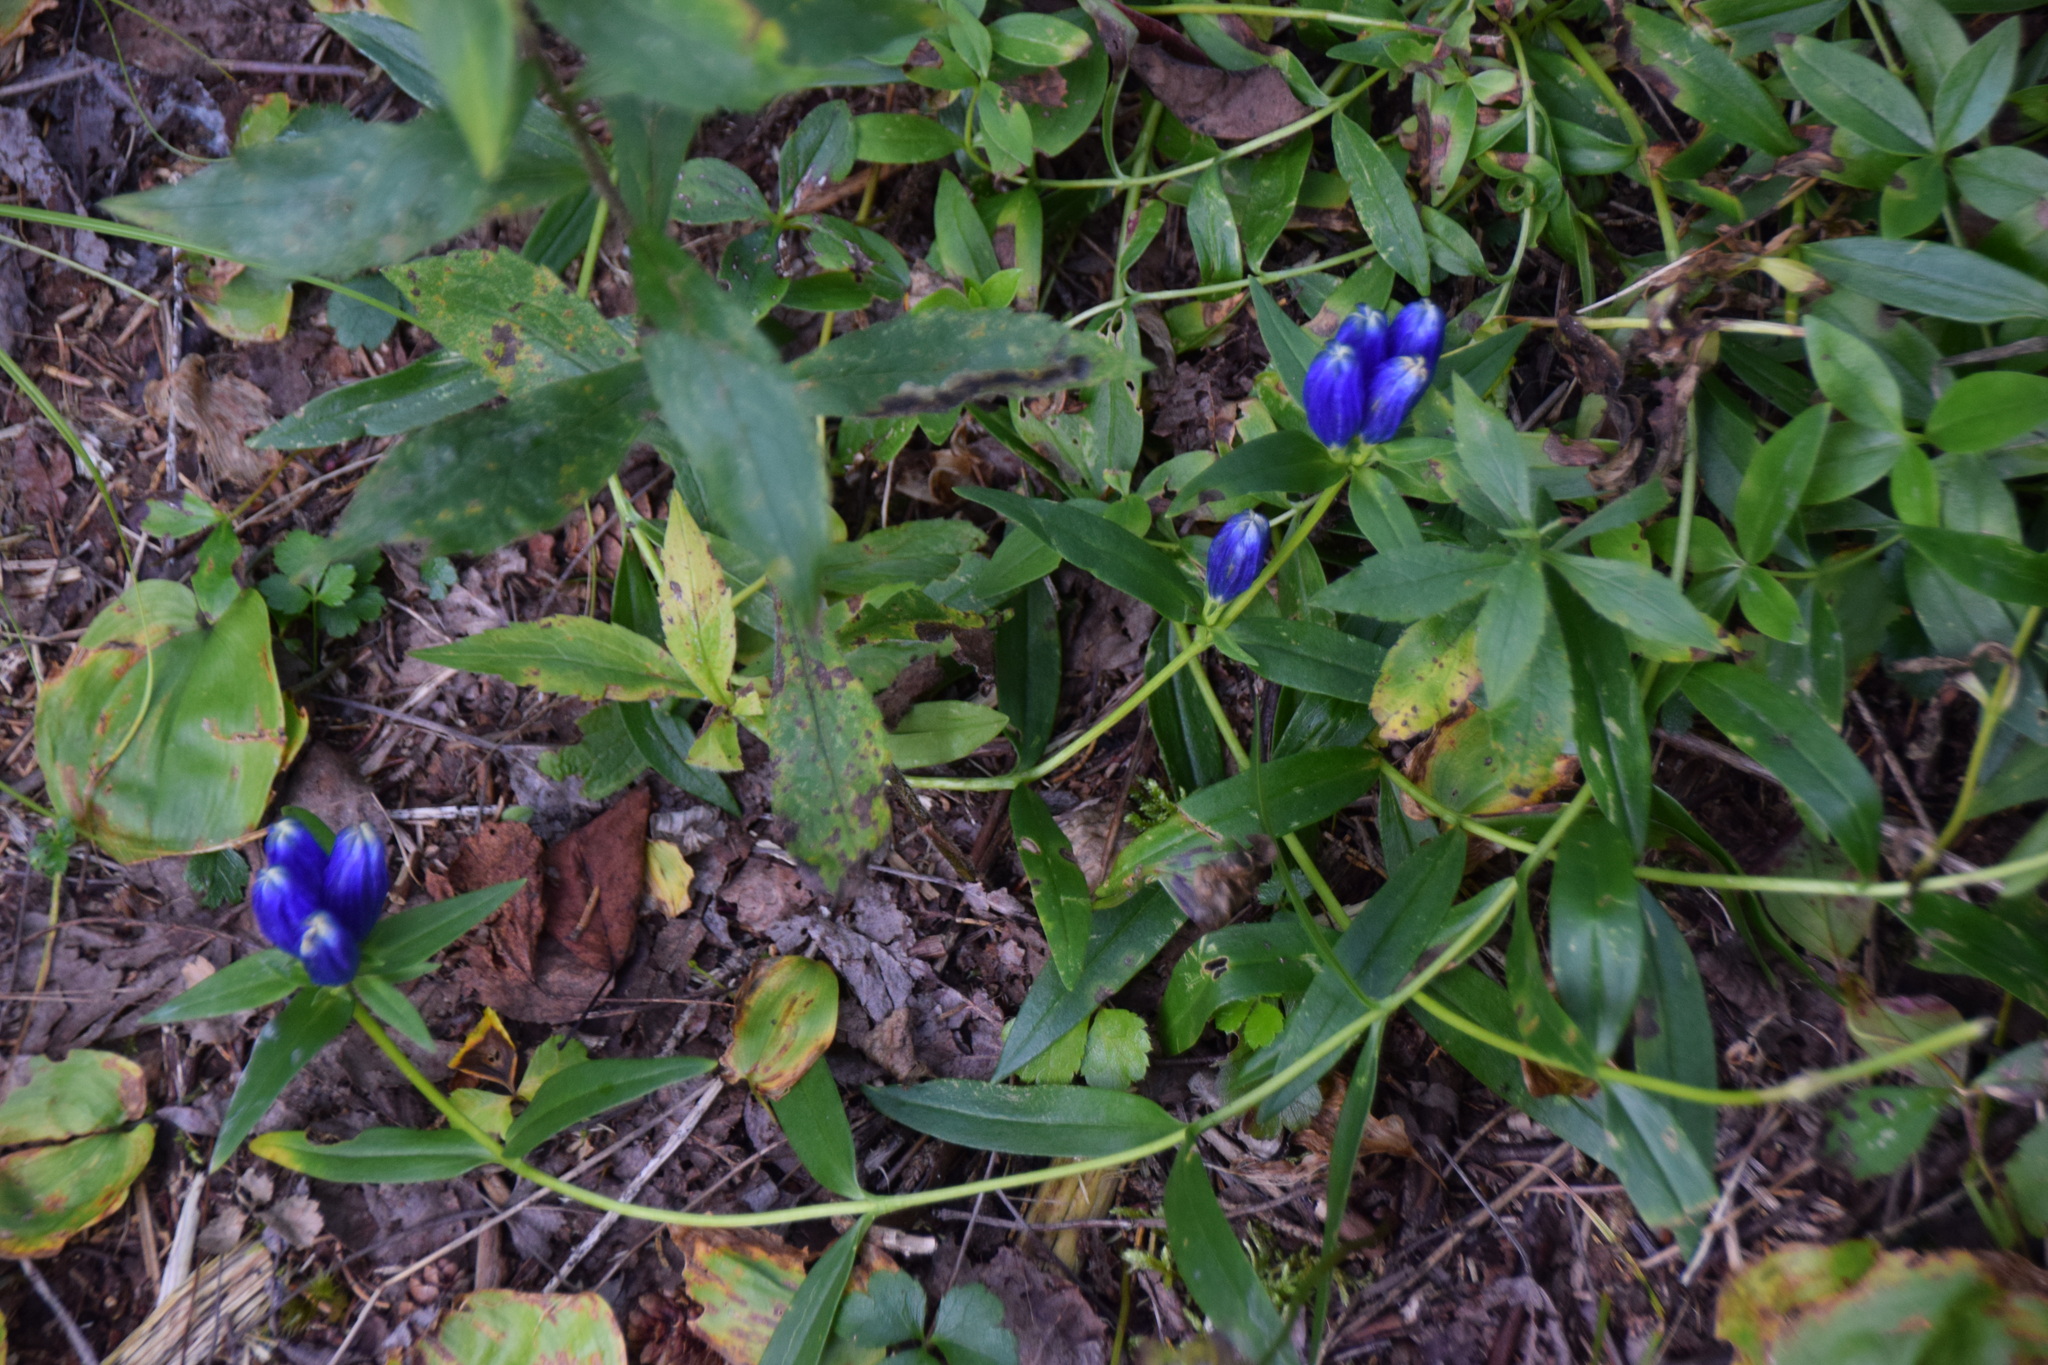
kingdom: Plantae
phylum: Tracheophyta
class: Magnoliopsida
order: Gentianales
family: Gentianaceae
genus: Gentiana
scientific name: Gentiana linearis
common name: Bastard gentian
